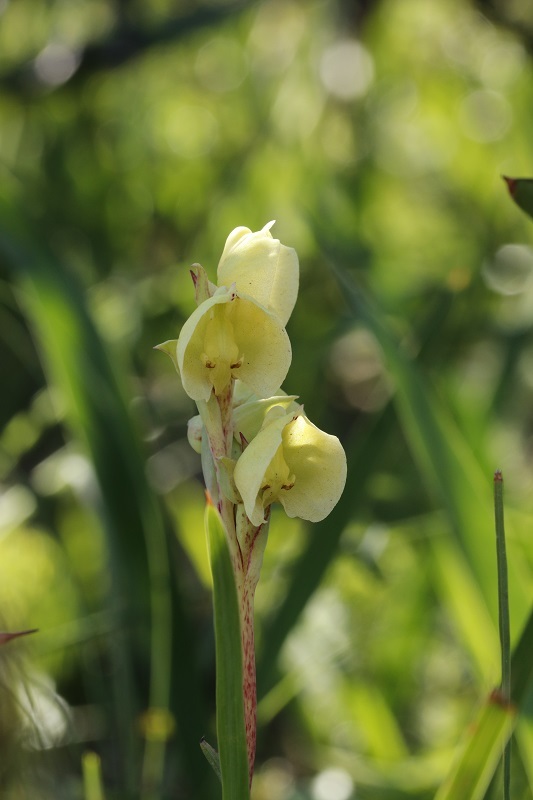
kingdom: Plantae
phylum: Tracheophyta
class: Liliopsida
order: Asparagales
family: Orchidaceae
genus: Pterygodium
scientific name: Pterygodium catholicum
